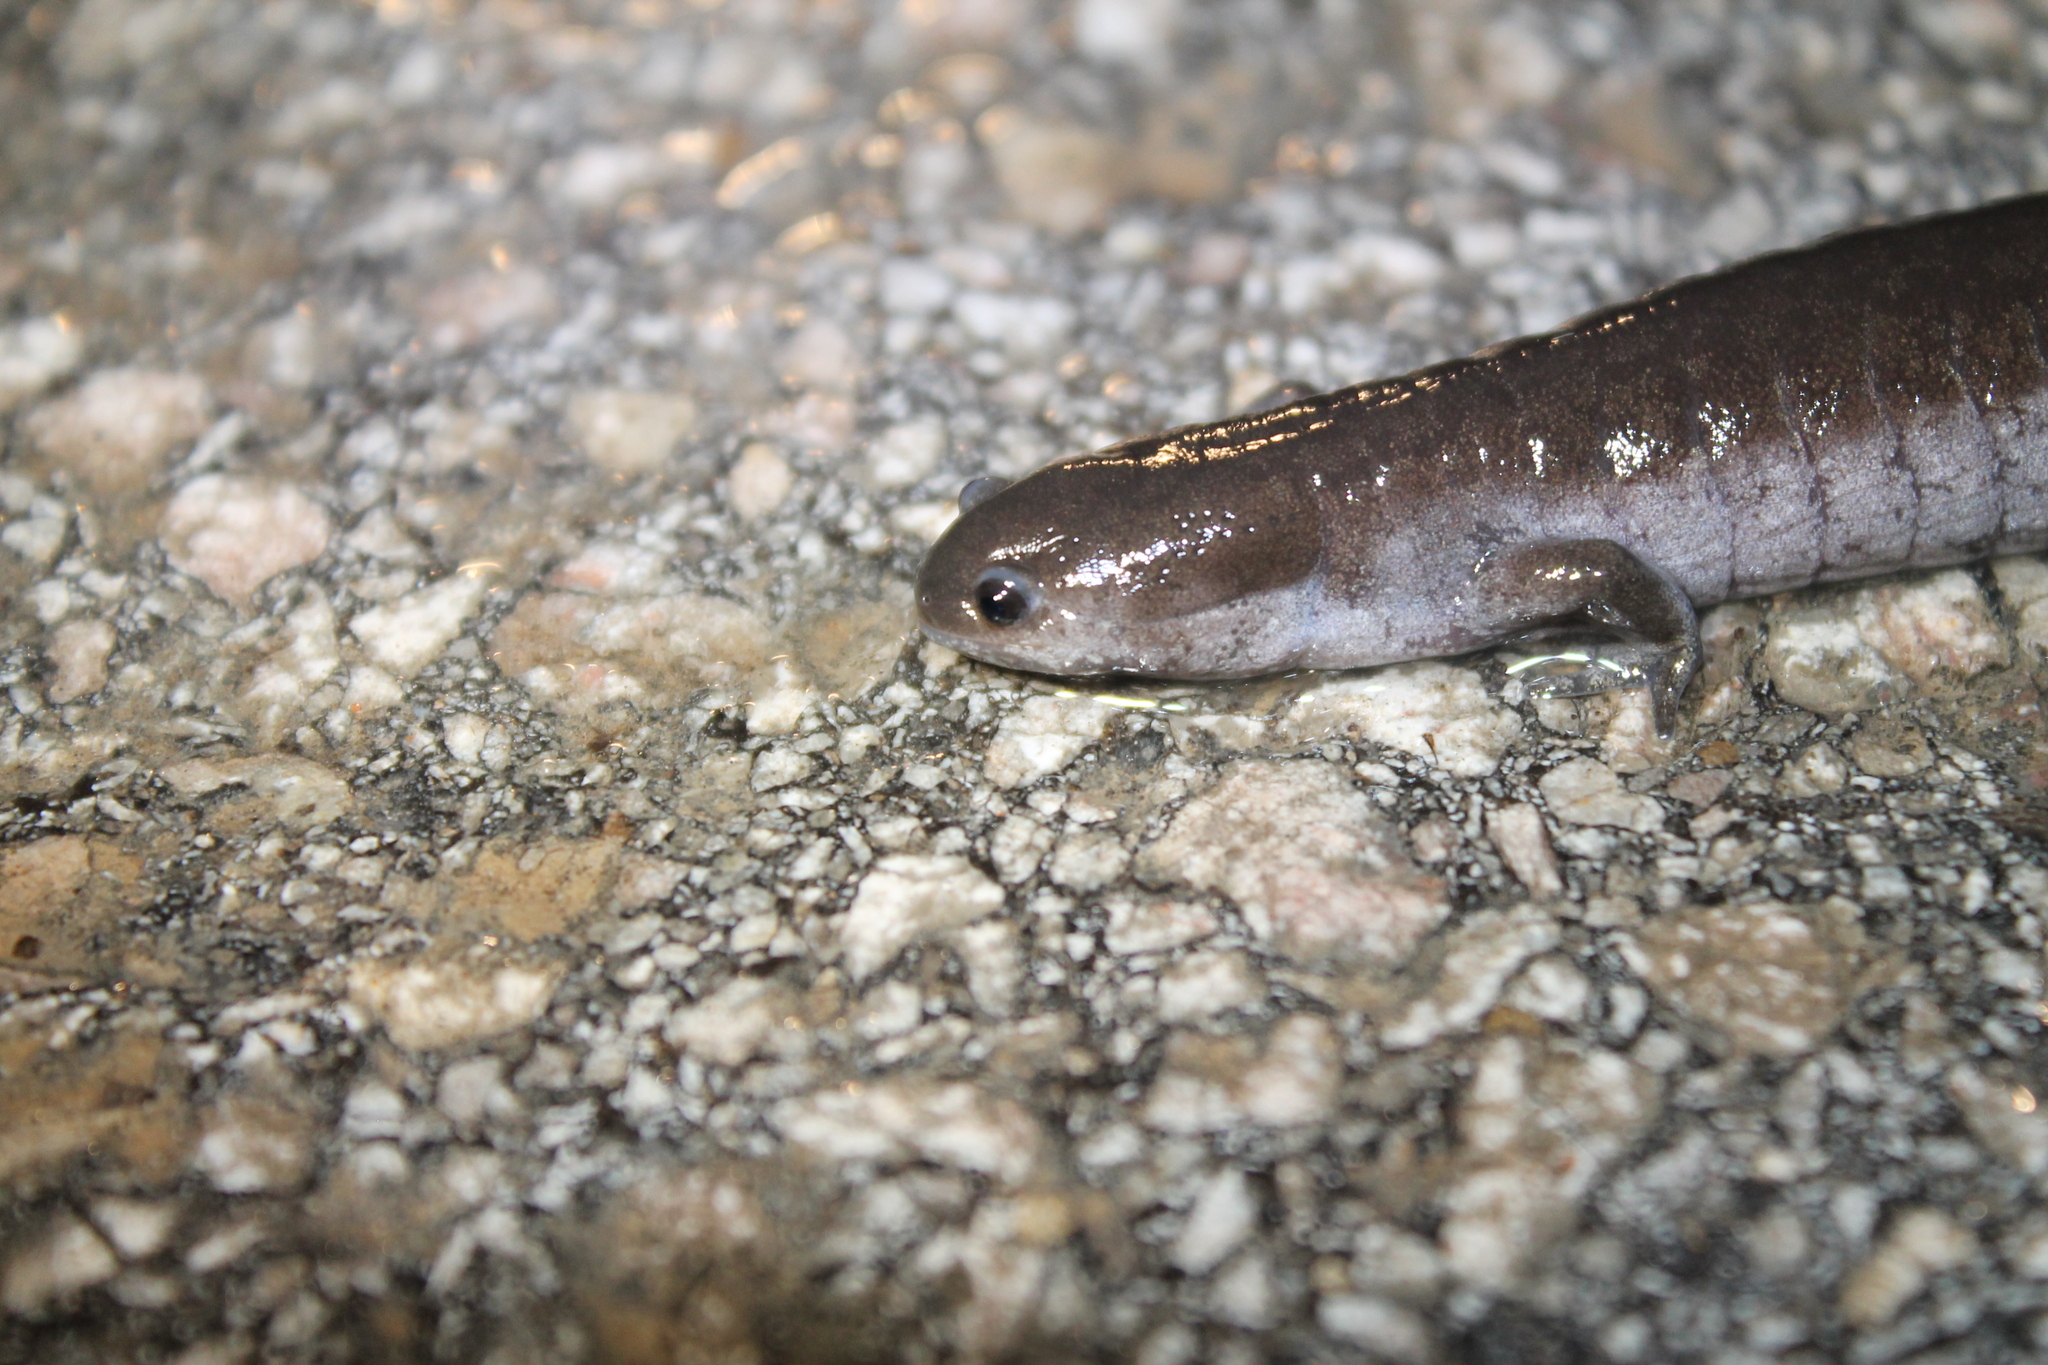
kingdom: Animalia
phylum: Chordata
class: Amphibia
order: Caudata
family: Ambystomatidae
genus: Ambystoma
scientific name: Ambystoma texanum
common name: Small-mouth salamander
